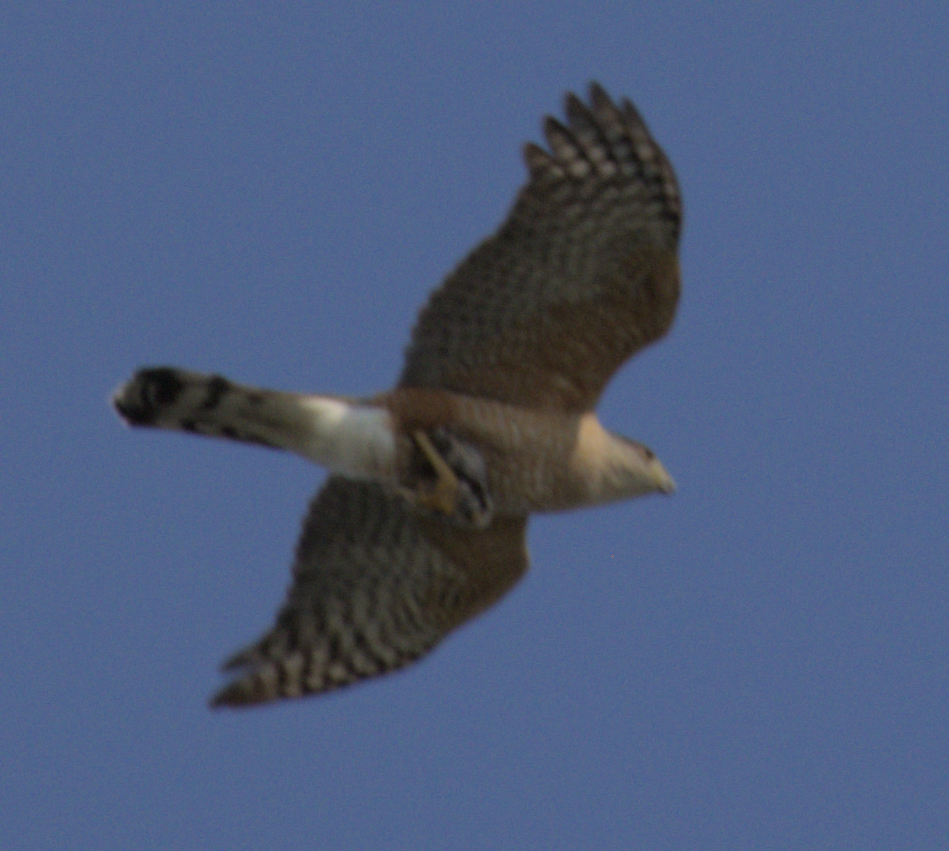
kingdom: Animalia
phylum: Chordata
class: Aves
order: Accipitriformes
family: Accipitridae
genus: Accipiter
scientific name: Accipiter cooperii
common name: Cooper's hawk
